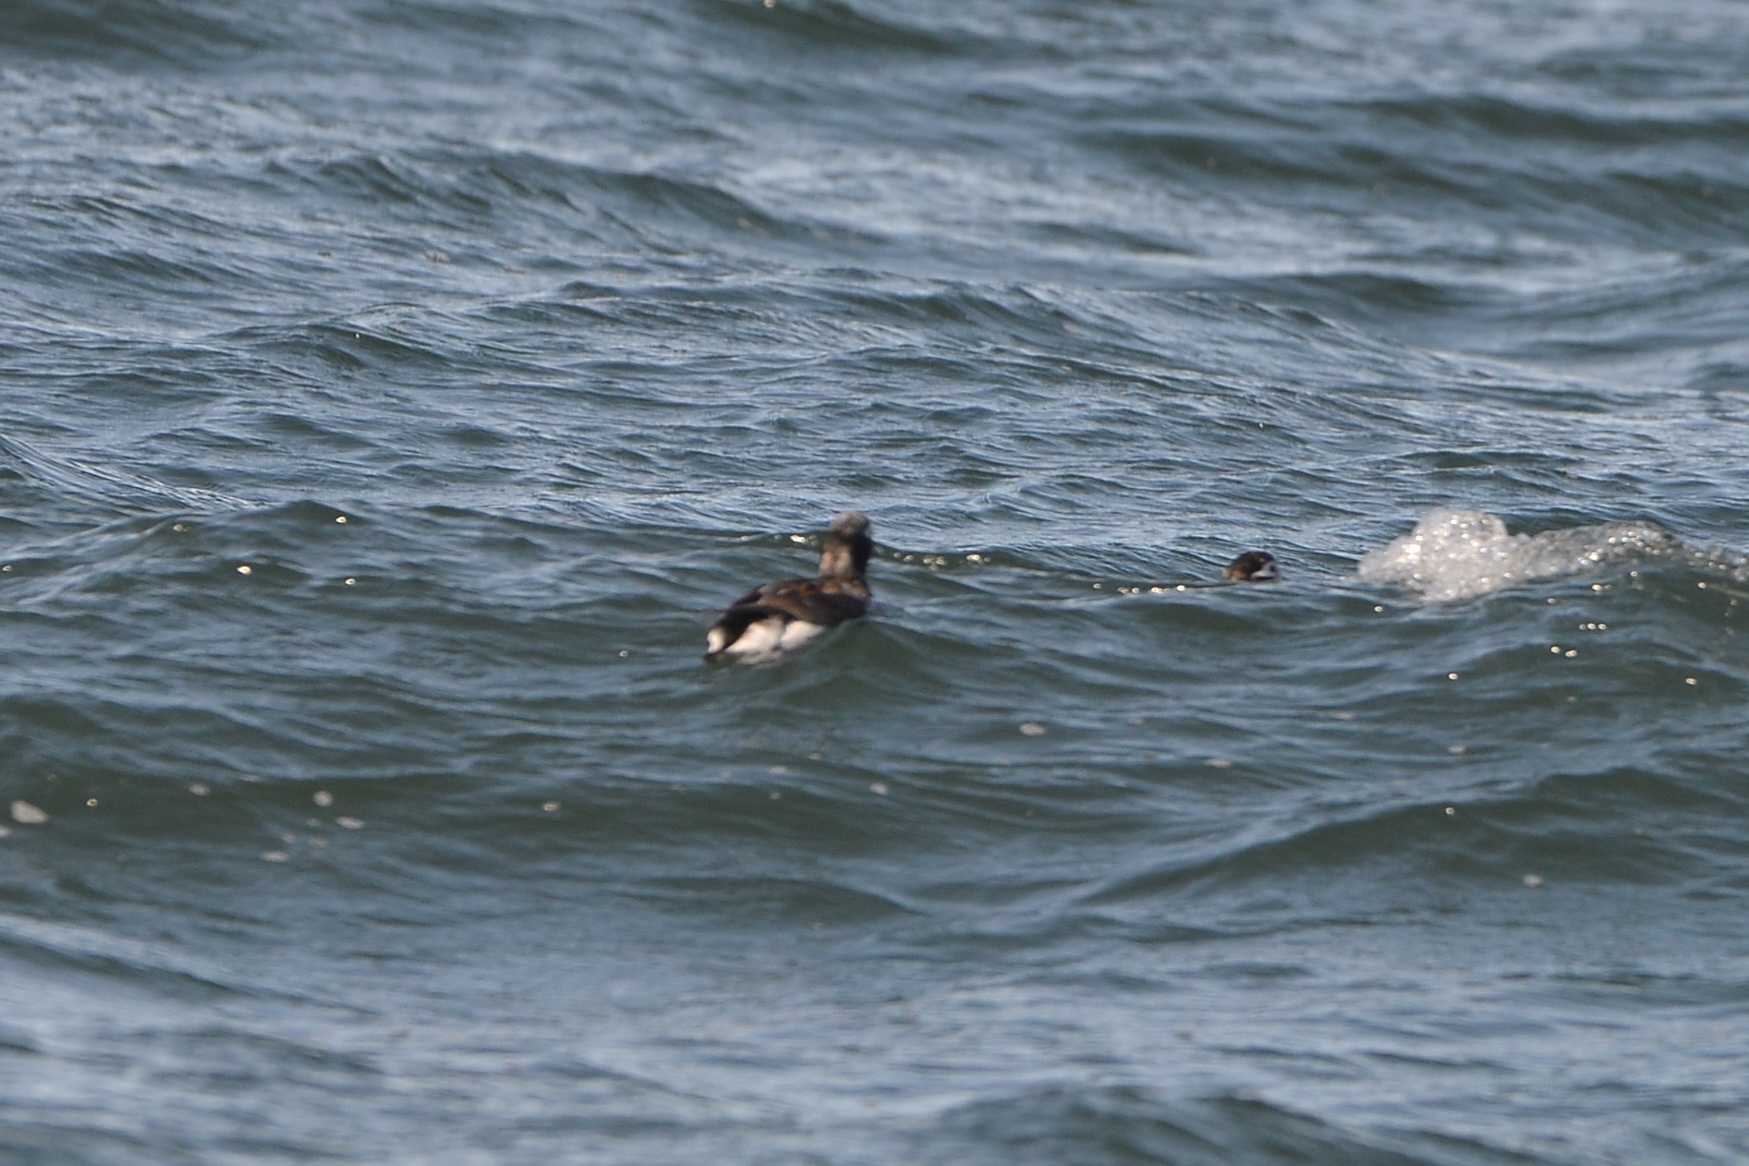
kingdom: Animalia
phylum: Chordata
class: Aves
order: Anseriformes
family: Anatidae
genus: Clangula
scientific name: Clangula hyemalis
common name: Long-tailed duck
